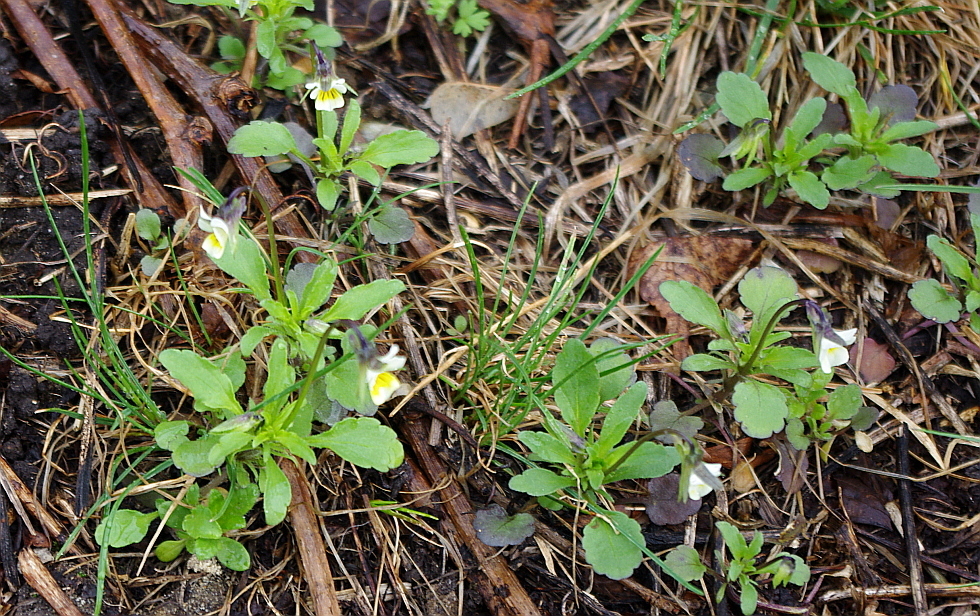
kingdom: Plantae
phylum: Tracheophyta
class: Magnoliopsida
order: Malpighiales
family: Violaceae
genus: Viola
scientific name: Viola arvensis
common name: Field pansy
